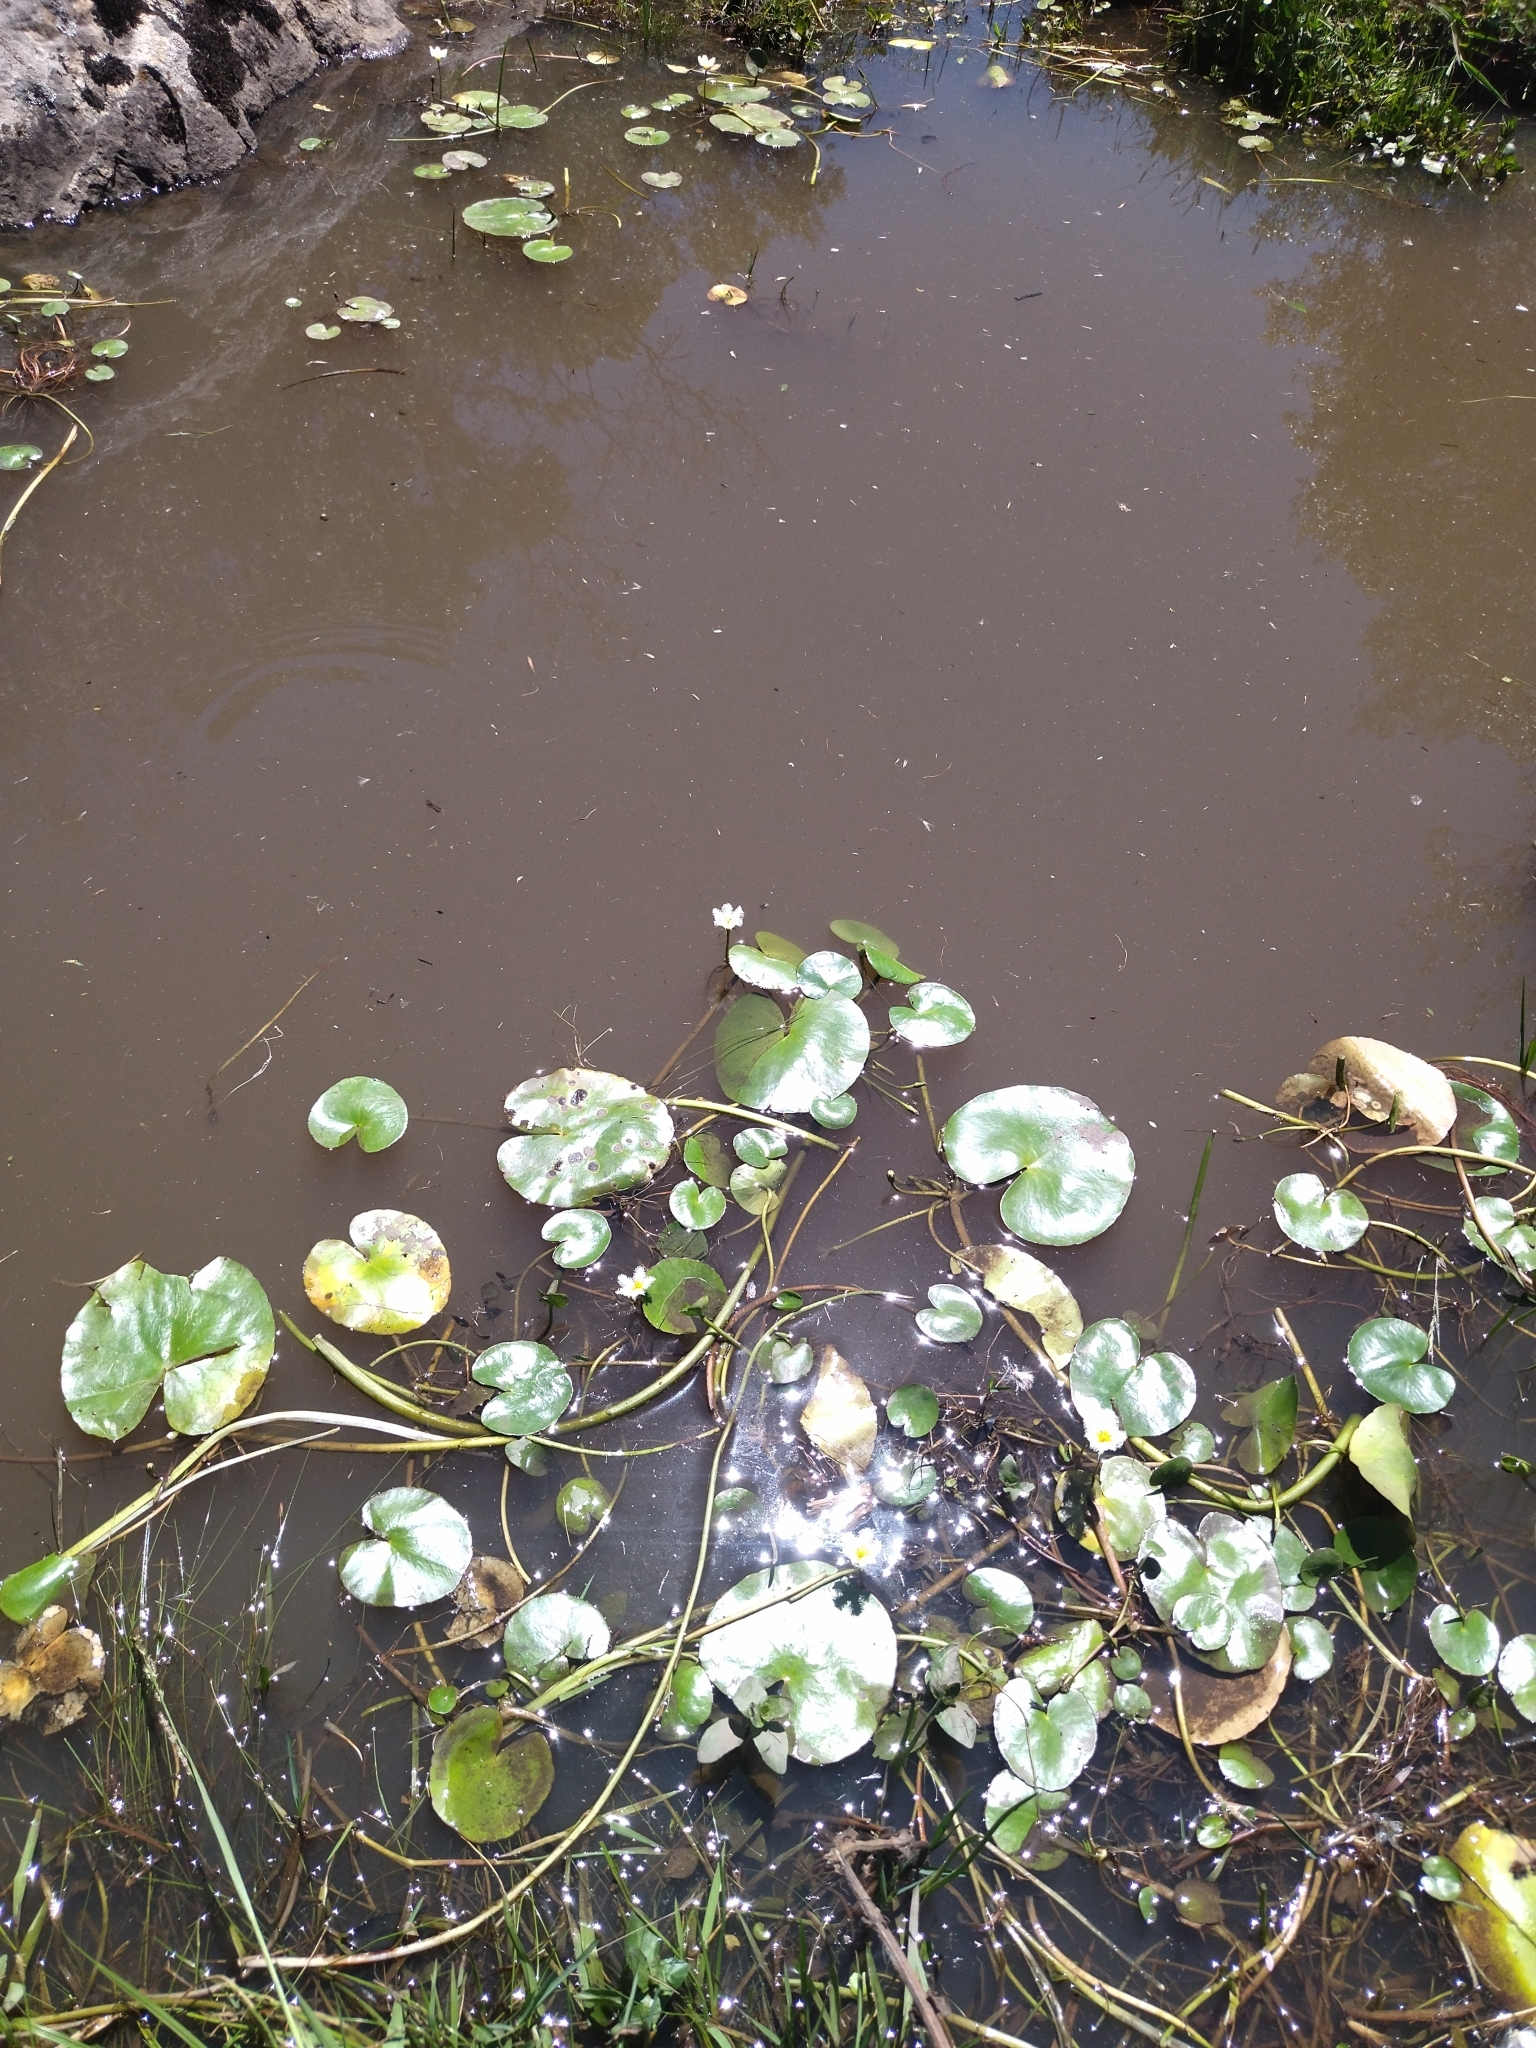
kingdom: Plantae
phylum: Tracheophyta
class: Magnoliopsida
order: Asterales
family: Menyanthaceae
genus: Nymphoides
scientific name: Nymphoides humboldtiana
